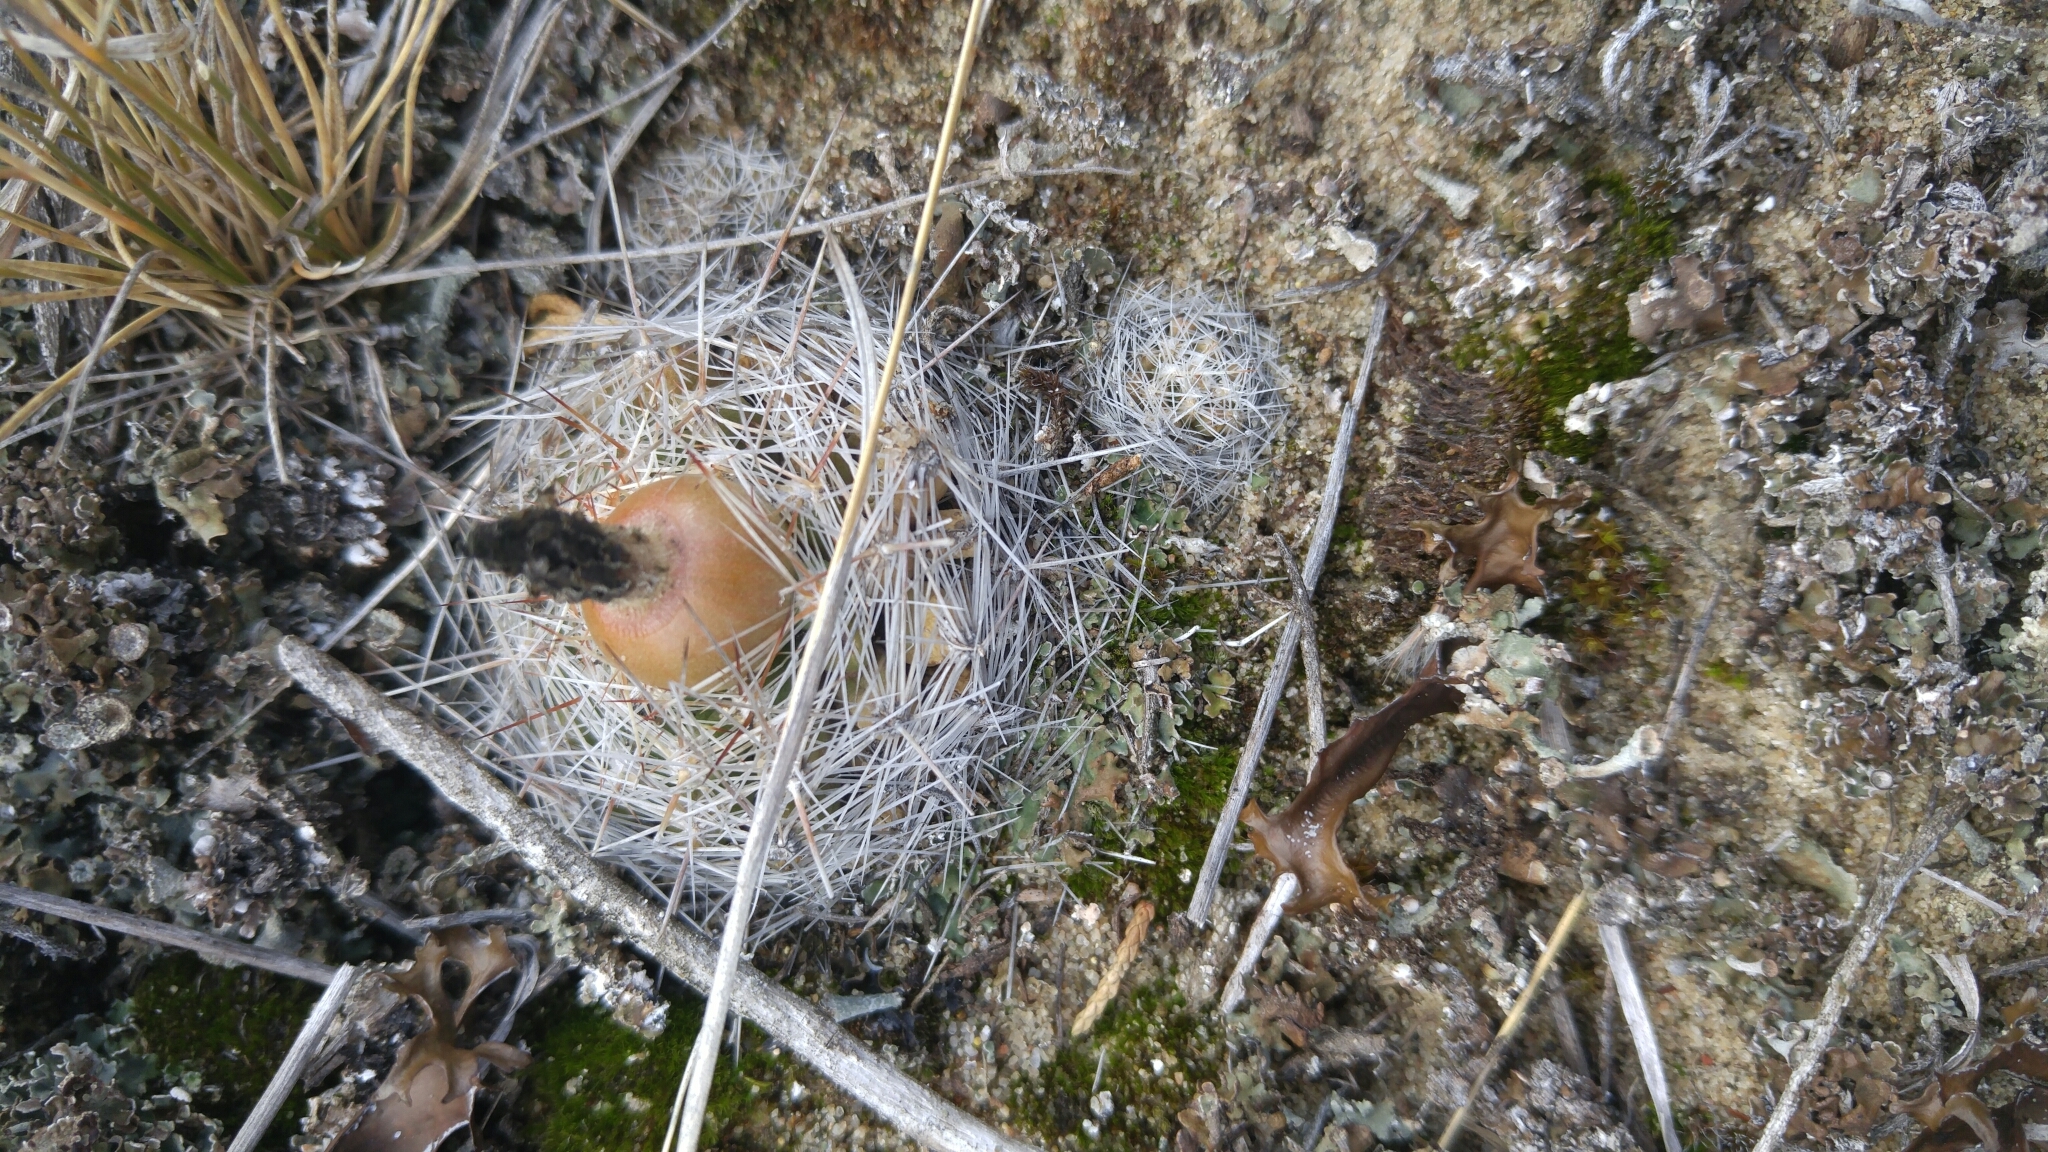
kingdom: Plantae
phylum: Tracheophyta
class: Magnoliopsida
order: Caryophyllales
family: Cactaceae
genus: Pelecyphora
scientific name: Pelecyphora vivipara
